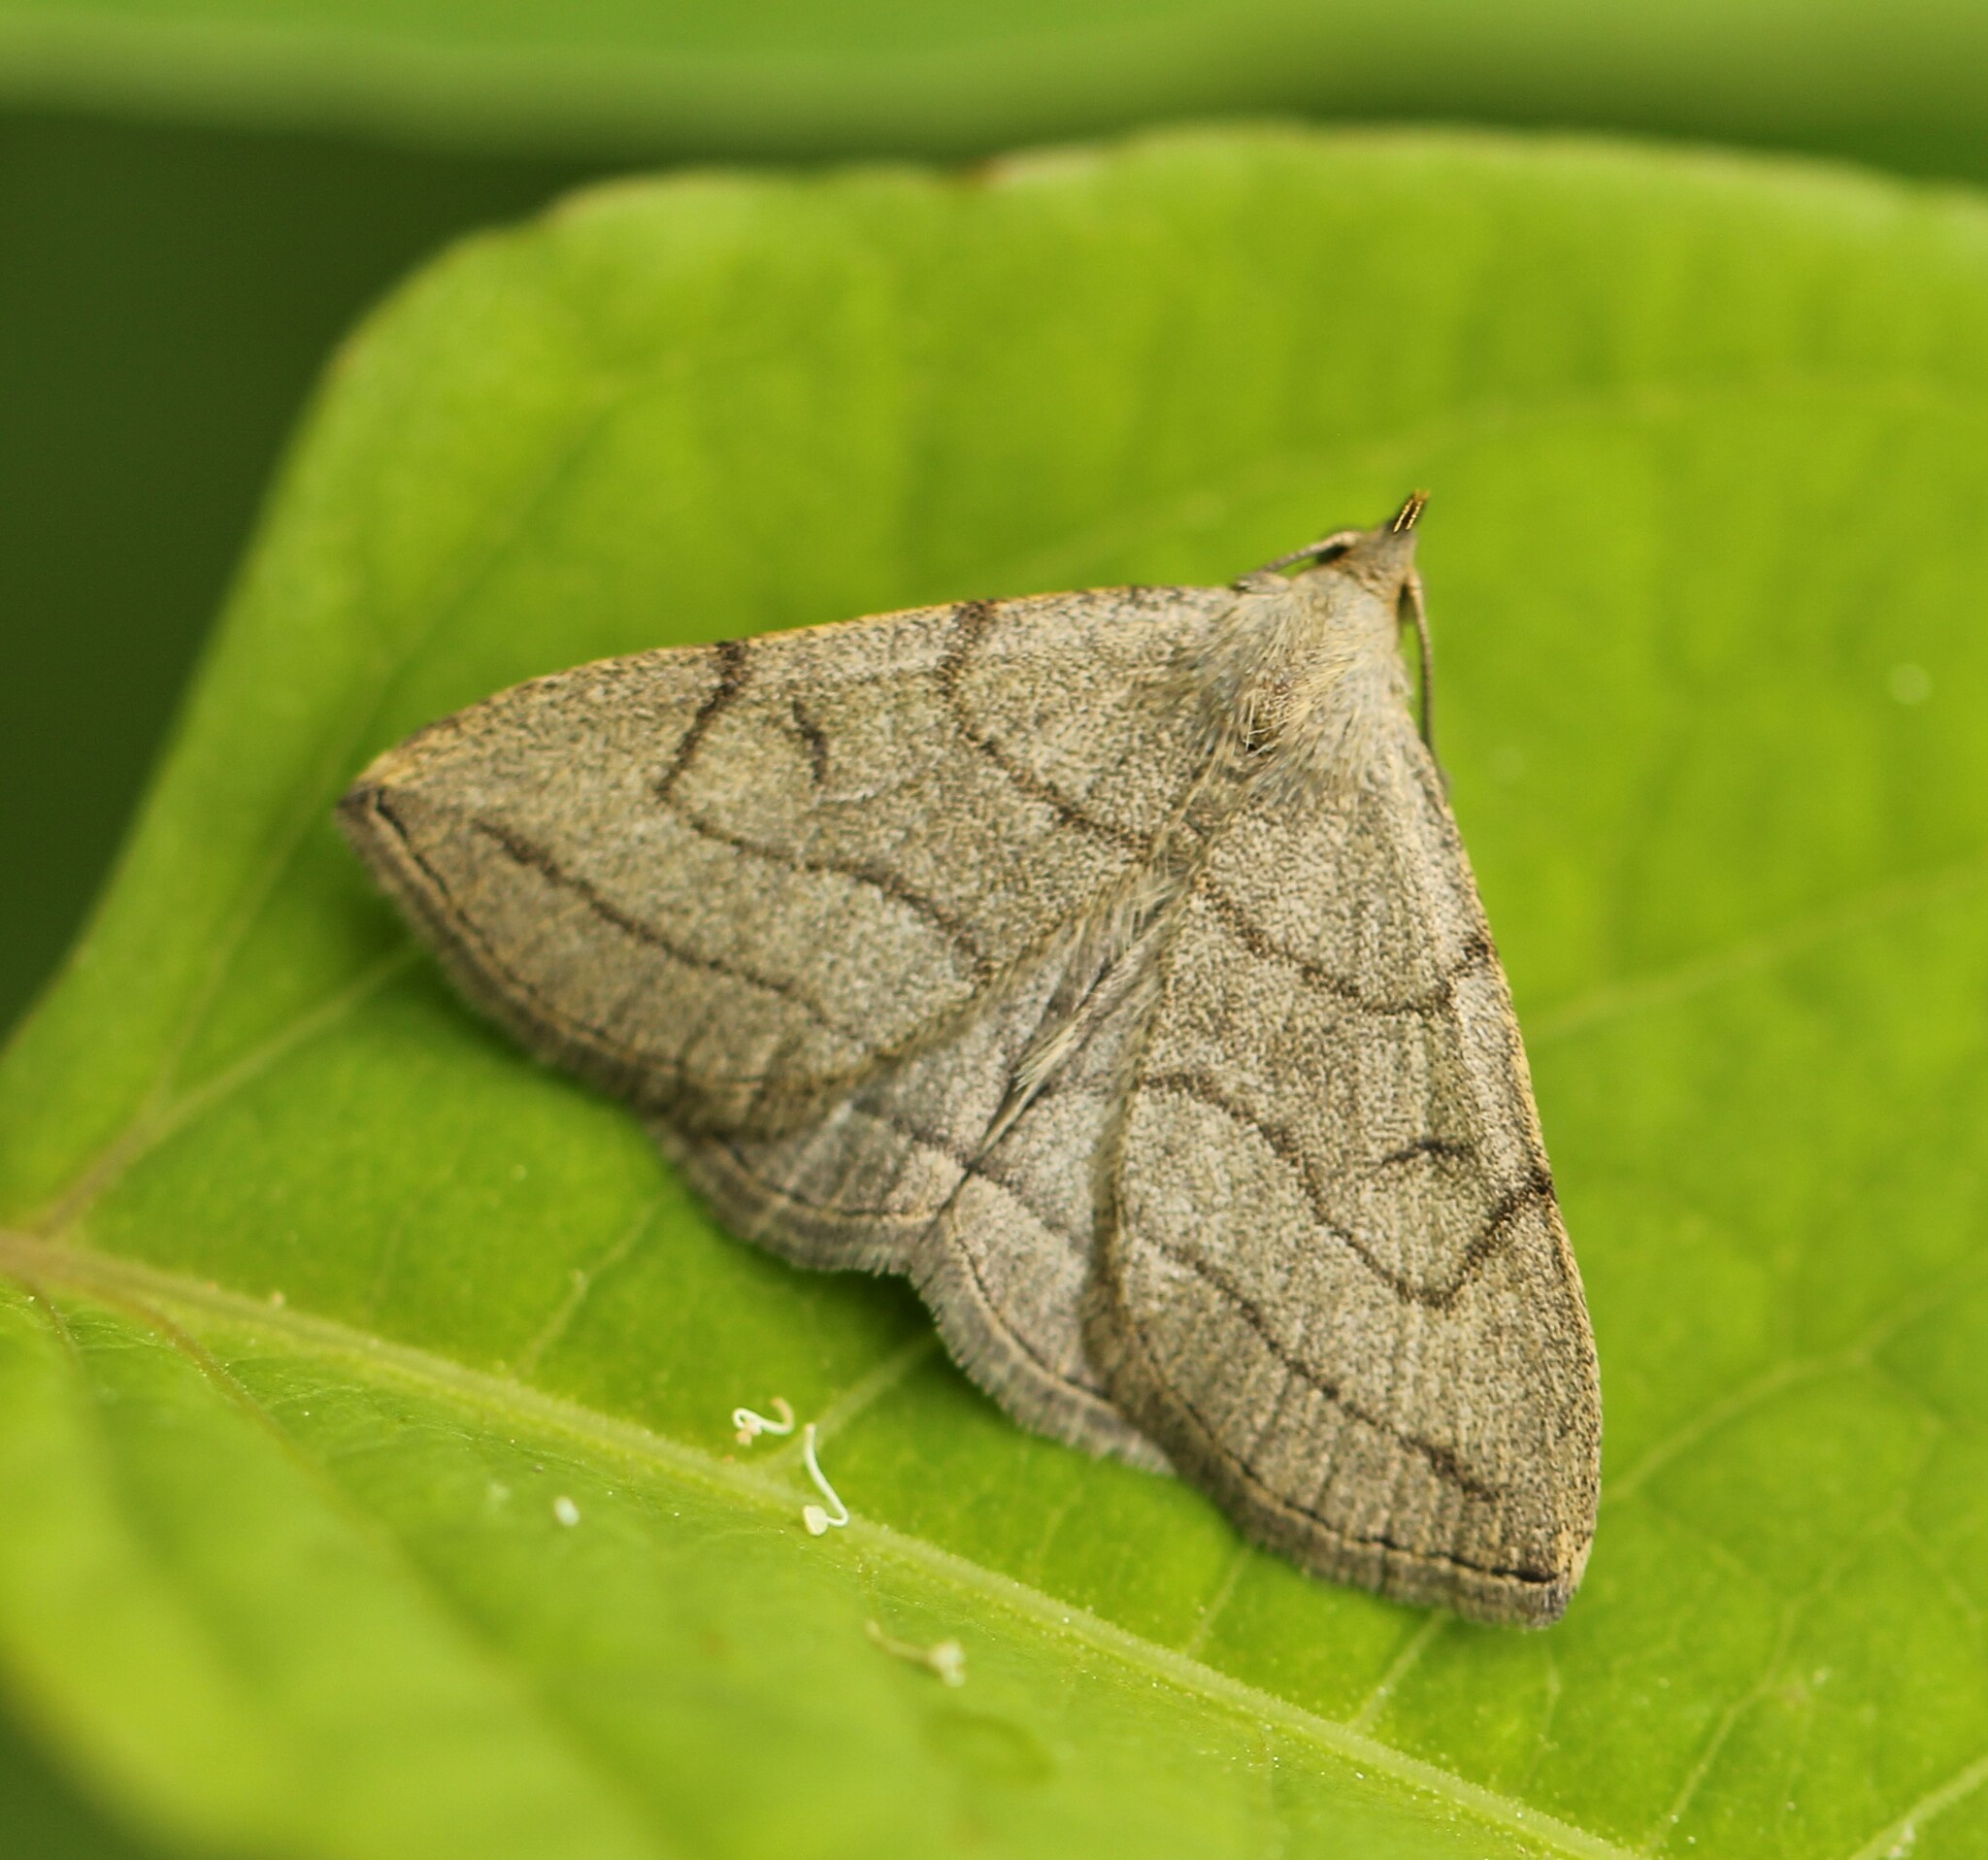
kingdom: Animalia
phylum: Arthropoda
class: Insecta
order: Lepidoptera
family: Erebidae
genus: Zanclognatha
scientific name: Zanclognatha pedipilalis
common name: Grayish fan-foot
